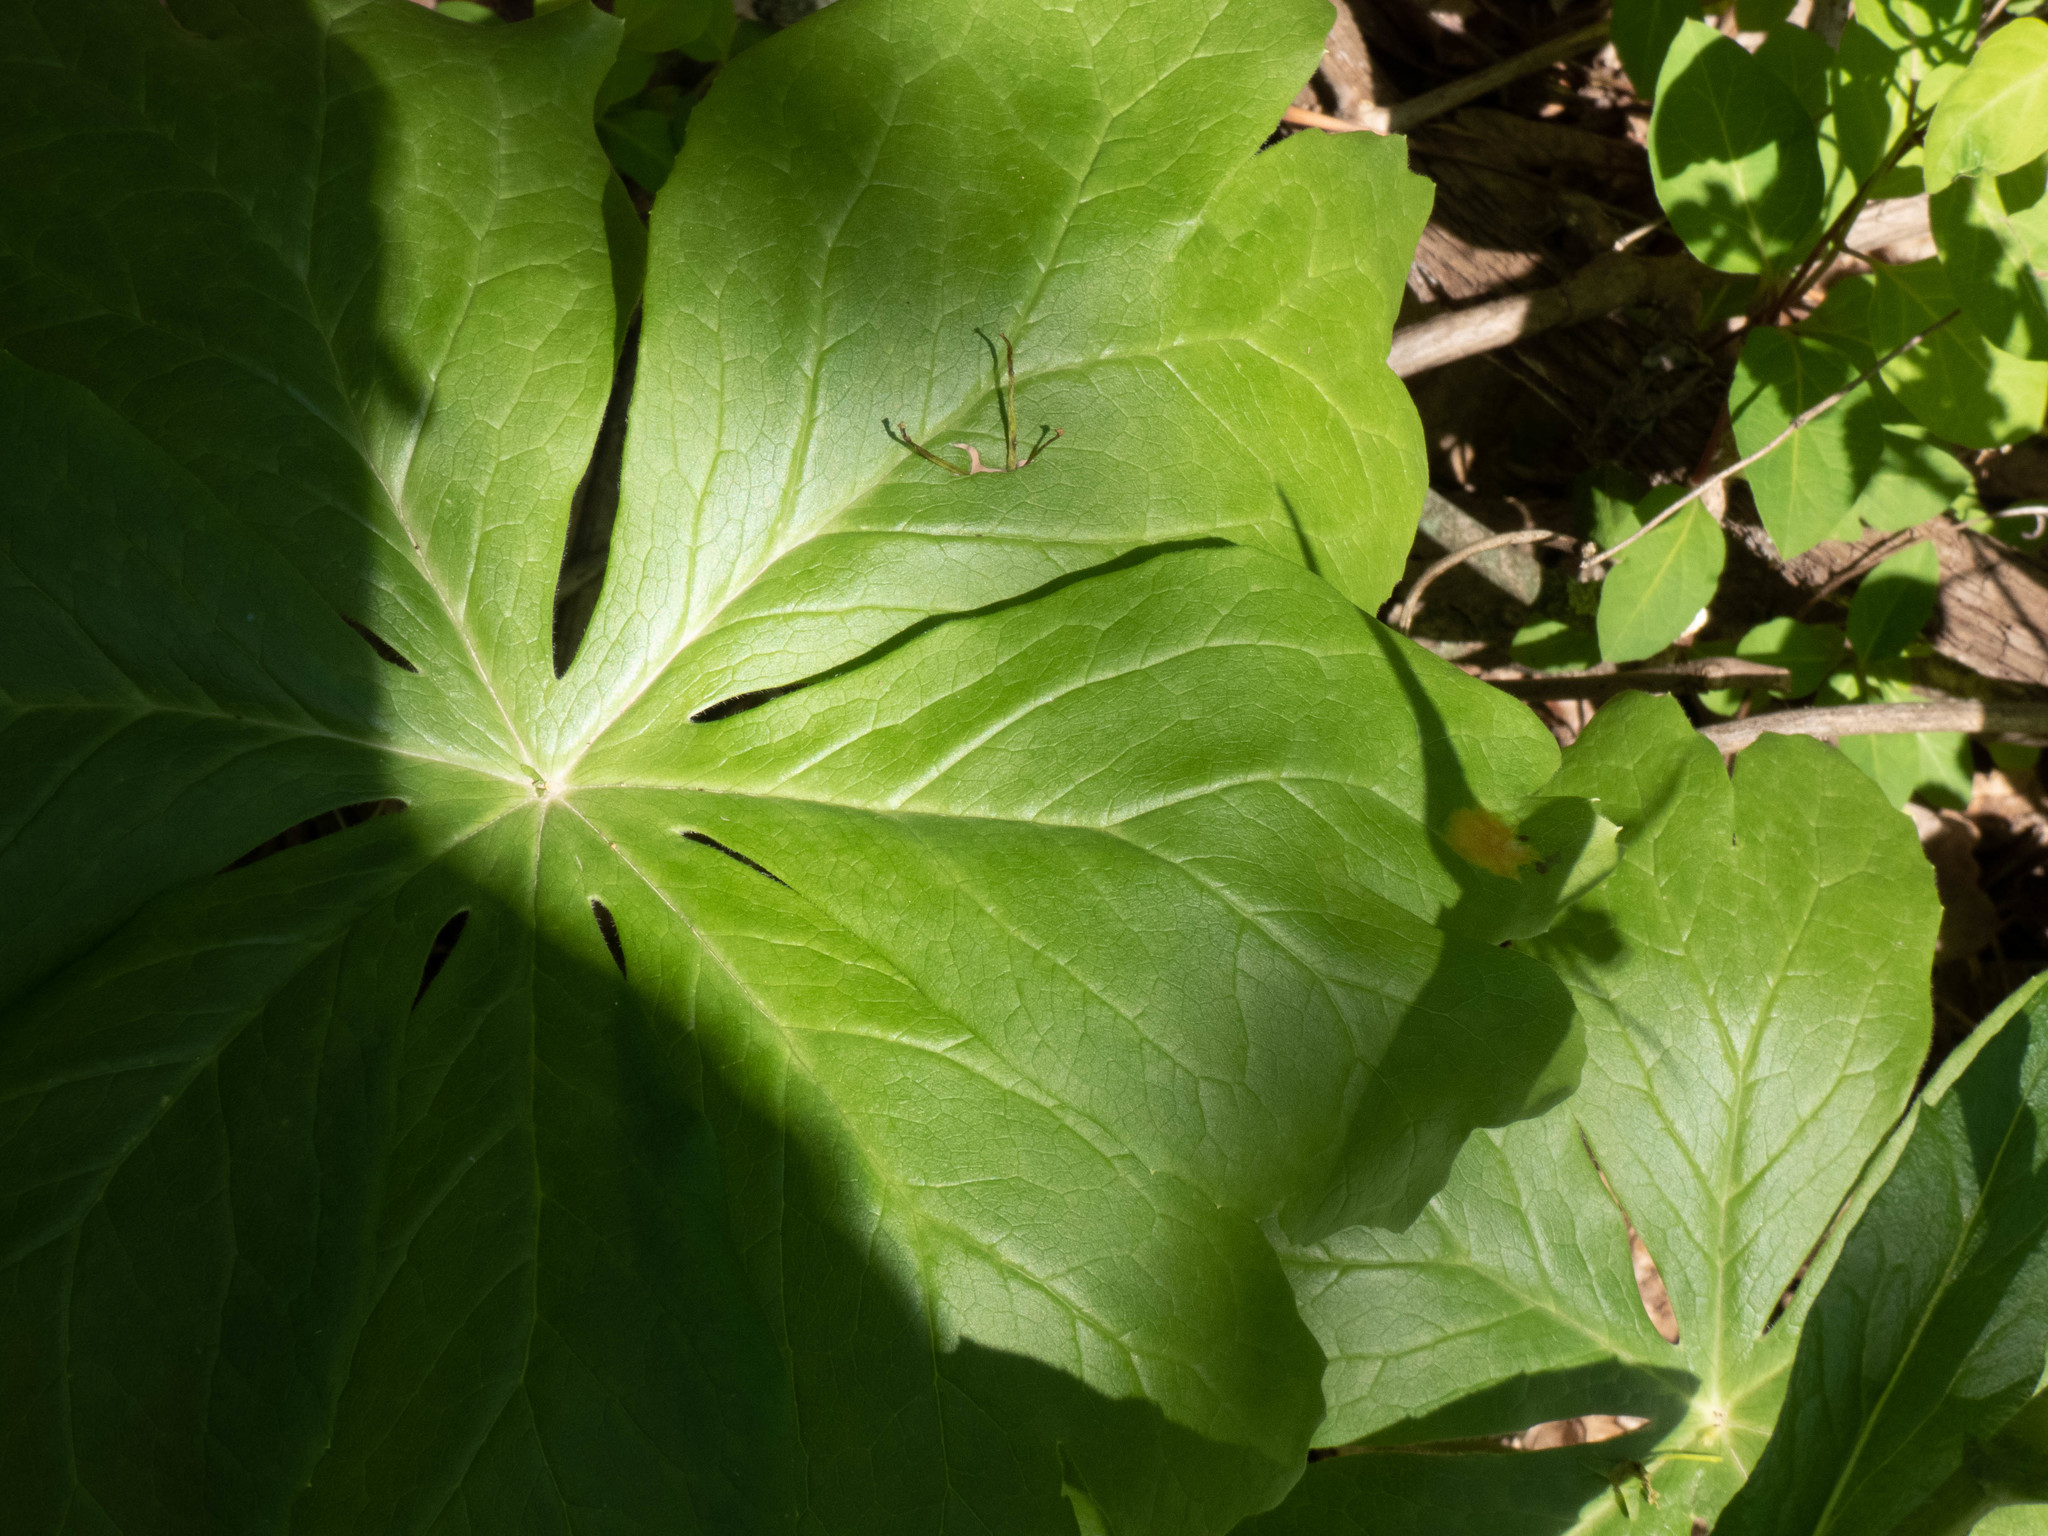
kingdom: Fungi
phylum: Basidiomycota
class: Pucciniomycetes
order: Pucciniales
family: Pucciniaceae
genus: Puccinia
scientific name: Puccinia podophylli
